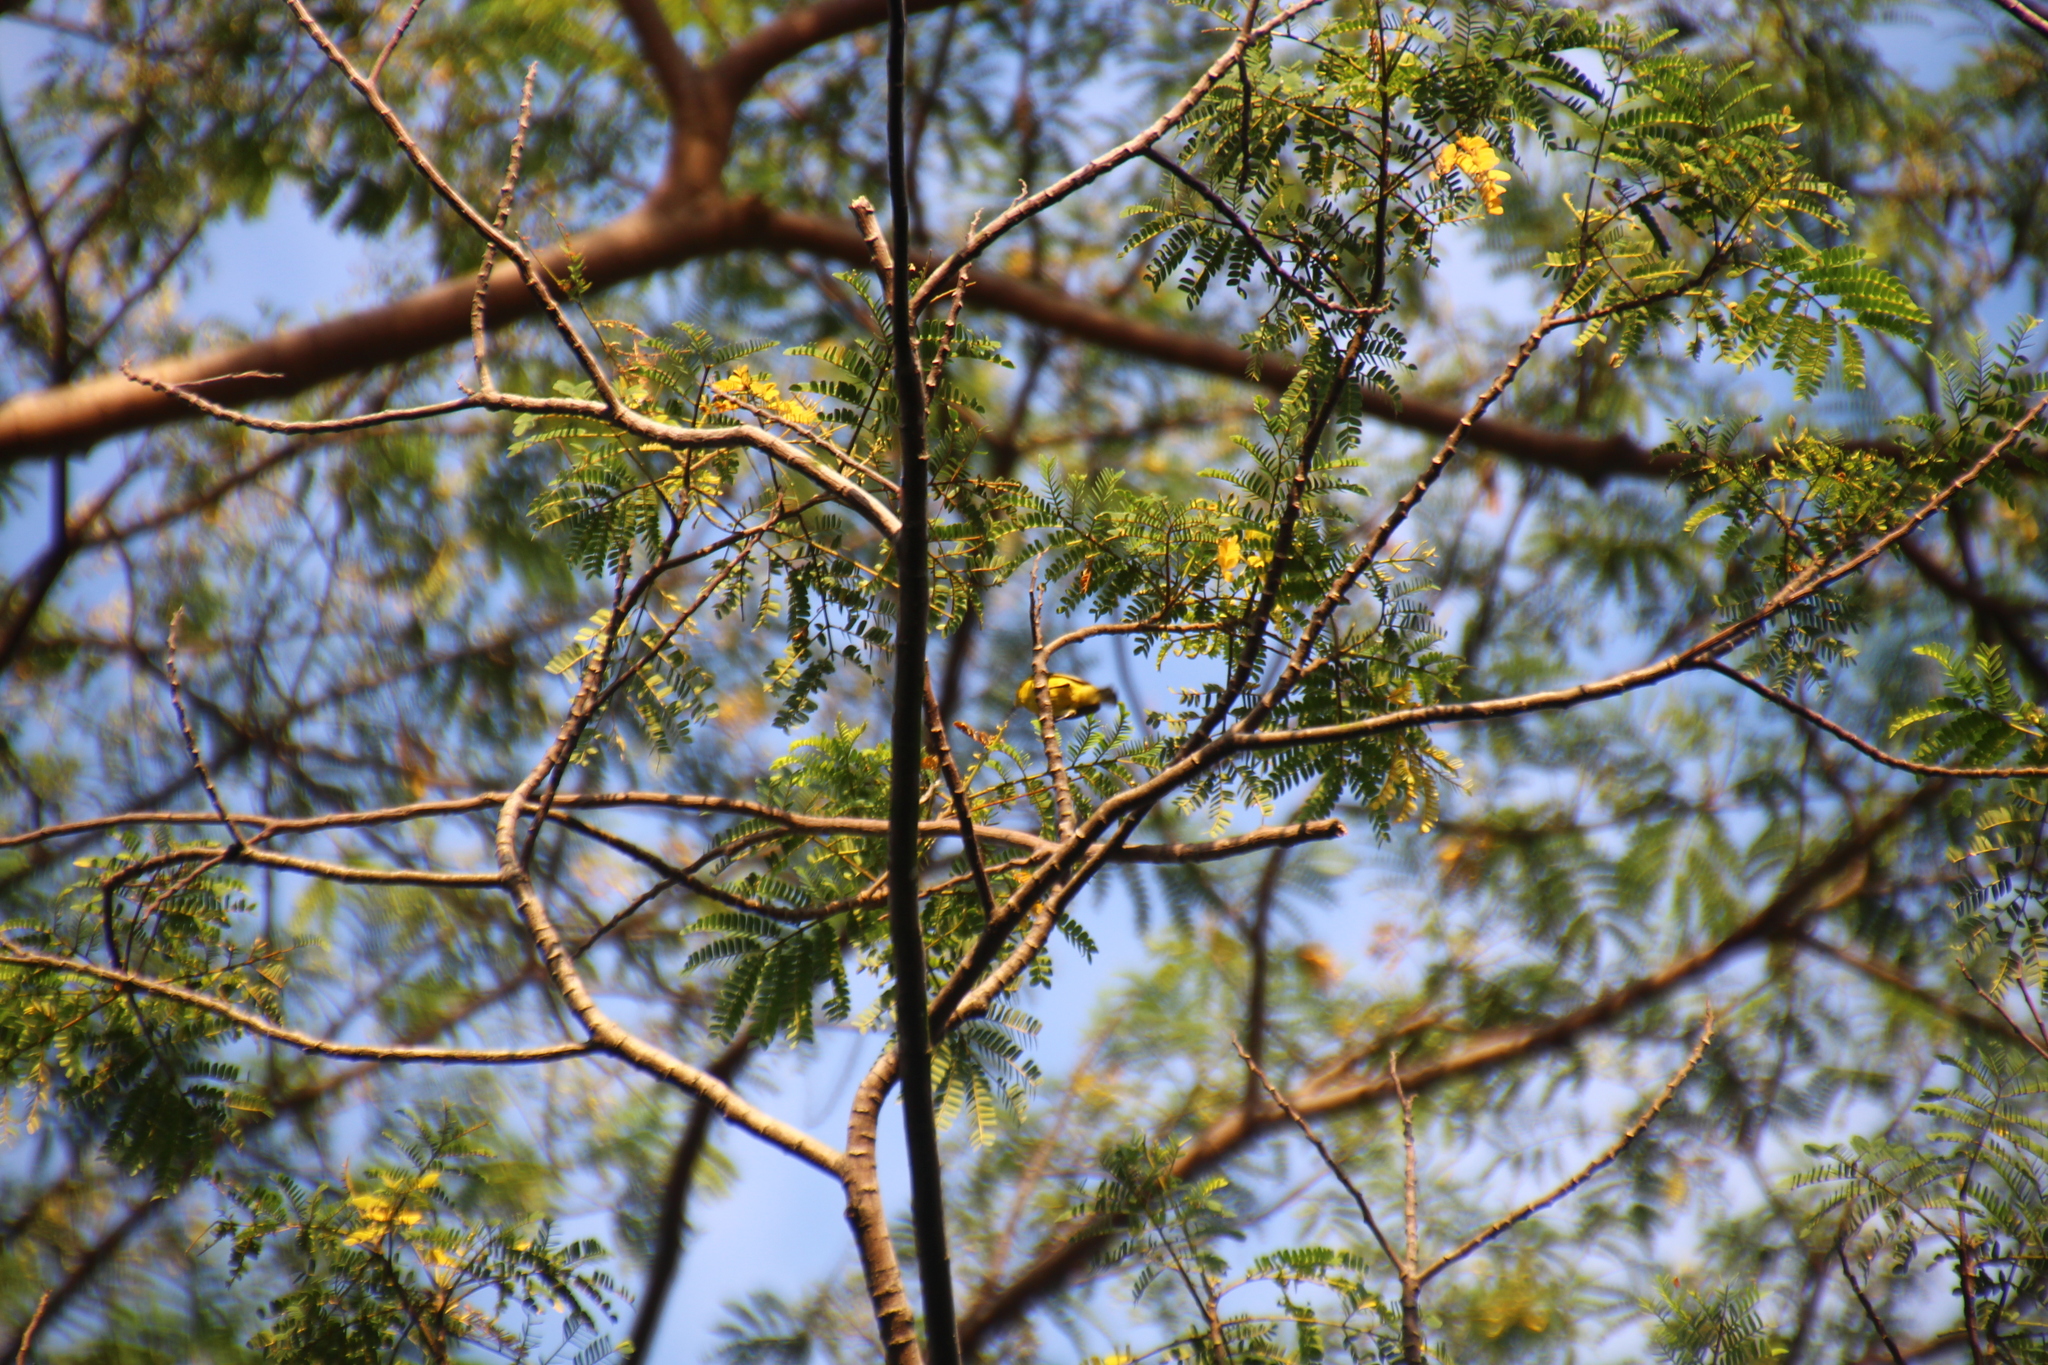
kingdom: Animalia
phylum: Chordata
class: Aves
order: Passeriformes
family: Nectariniidae
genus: Cinnyris
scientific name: Cinnyris
